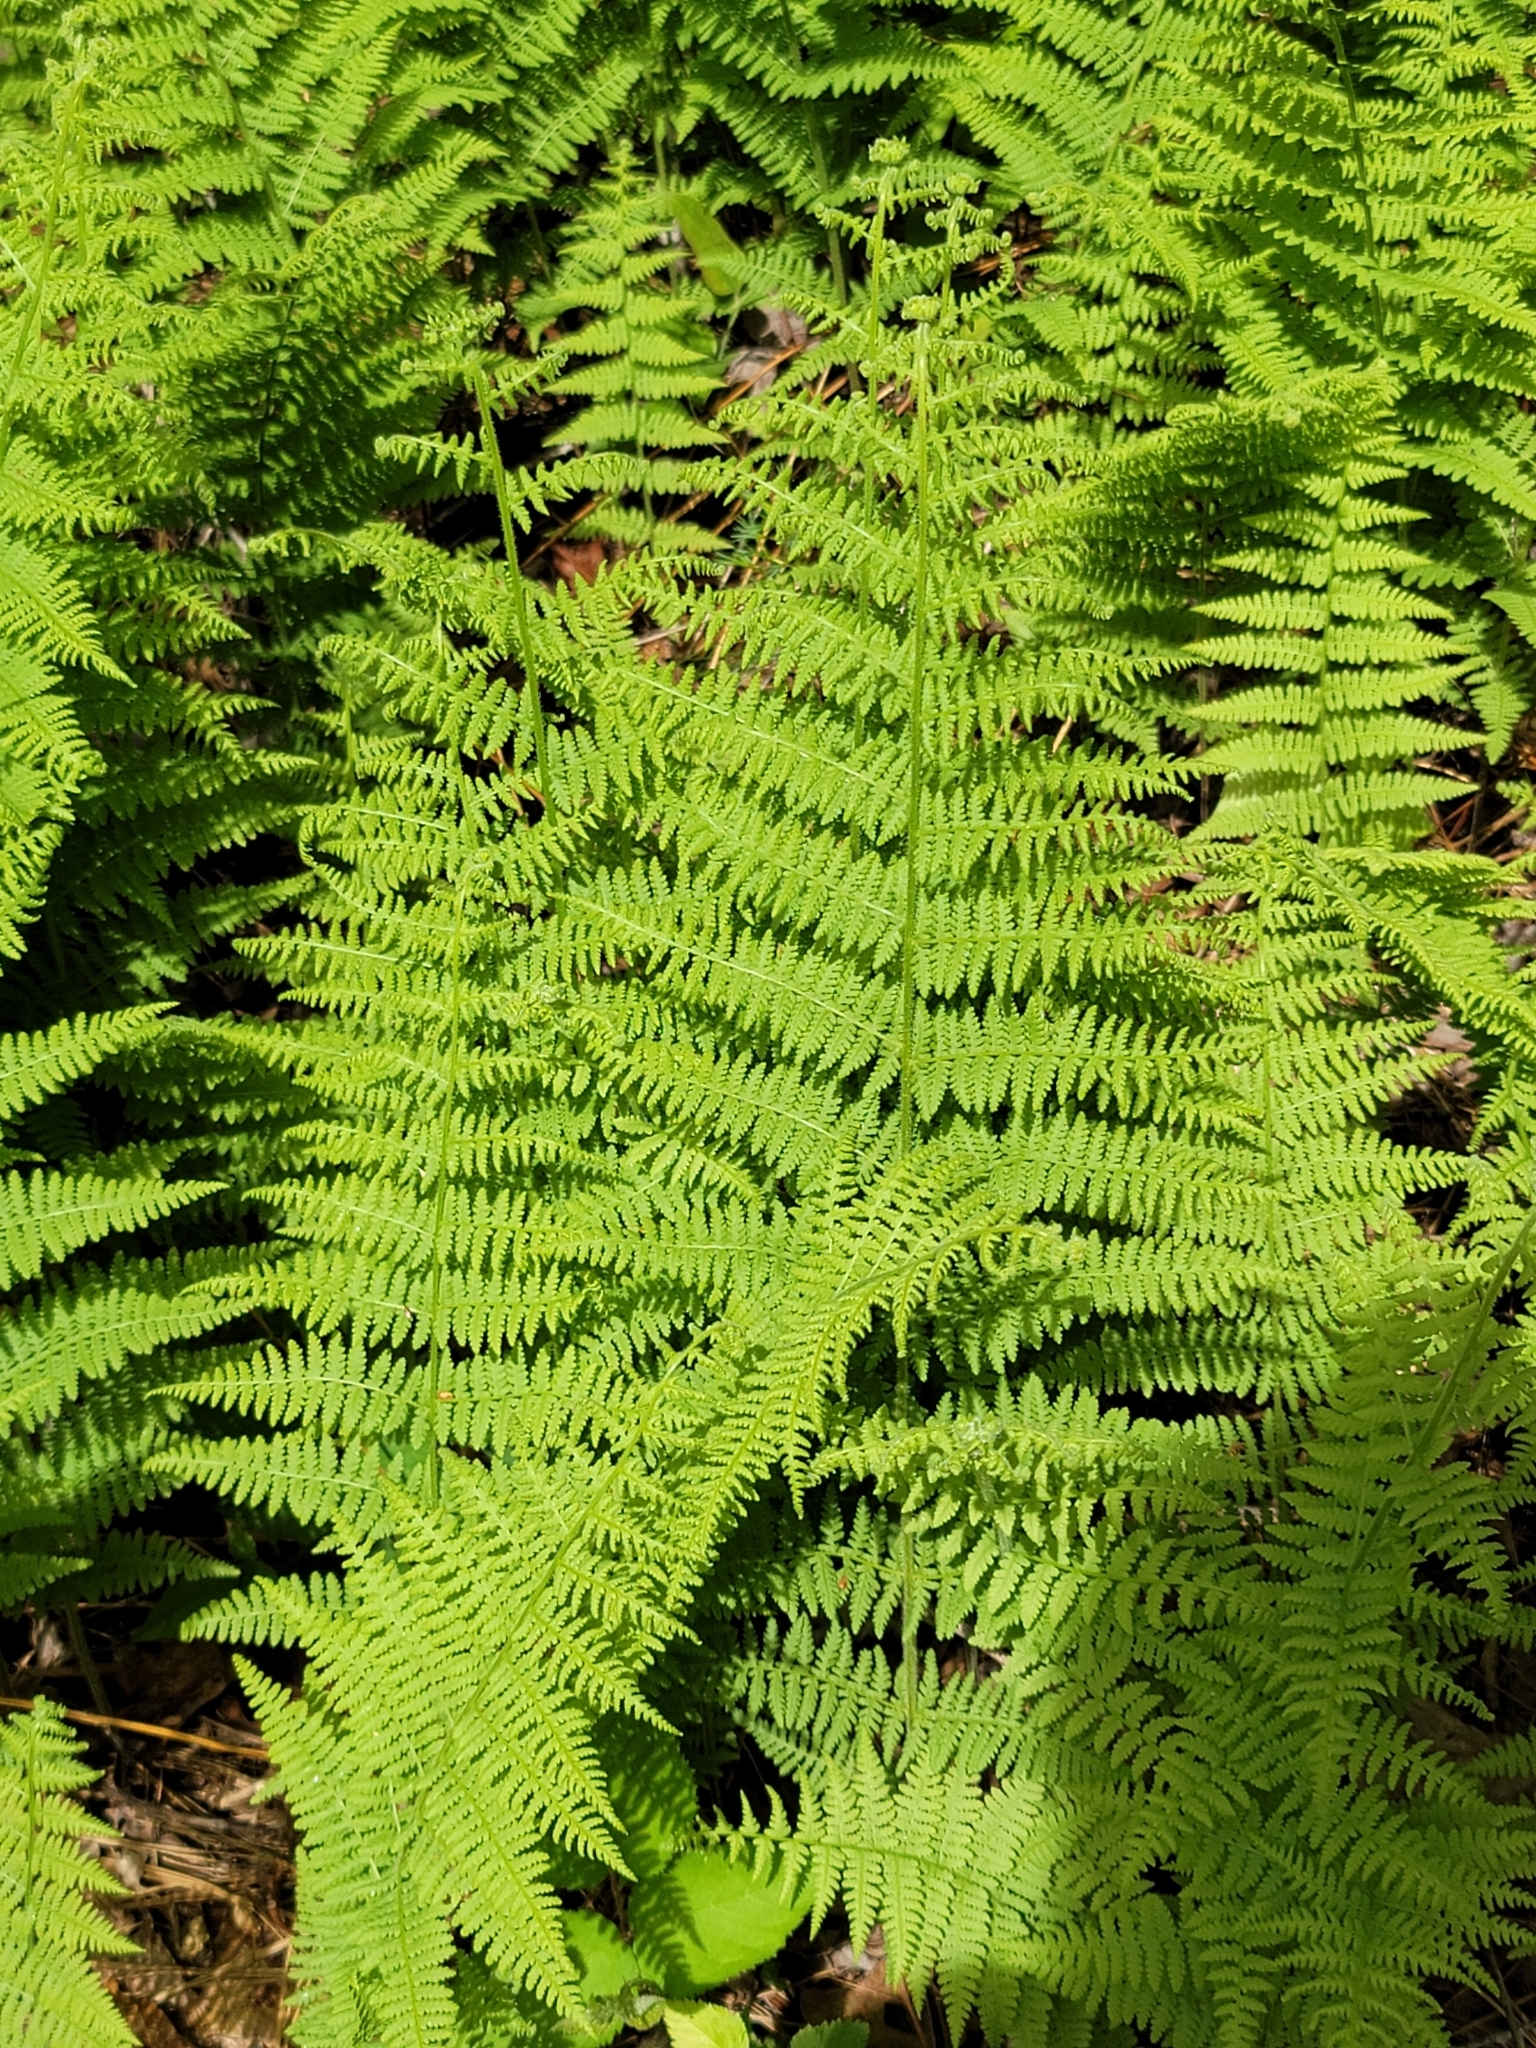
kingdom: Plantae
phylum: Tracheophyta
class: Polypodiopsida
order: Polypodiales
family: Dennstaedtiaceae
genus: Sitobolium
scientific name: Sitobolium punctilobum
